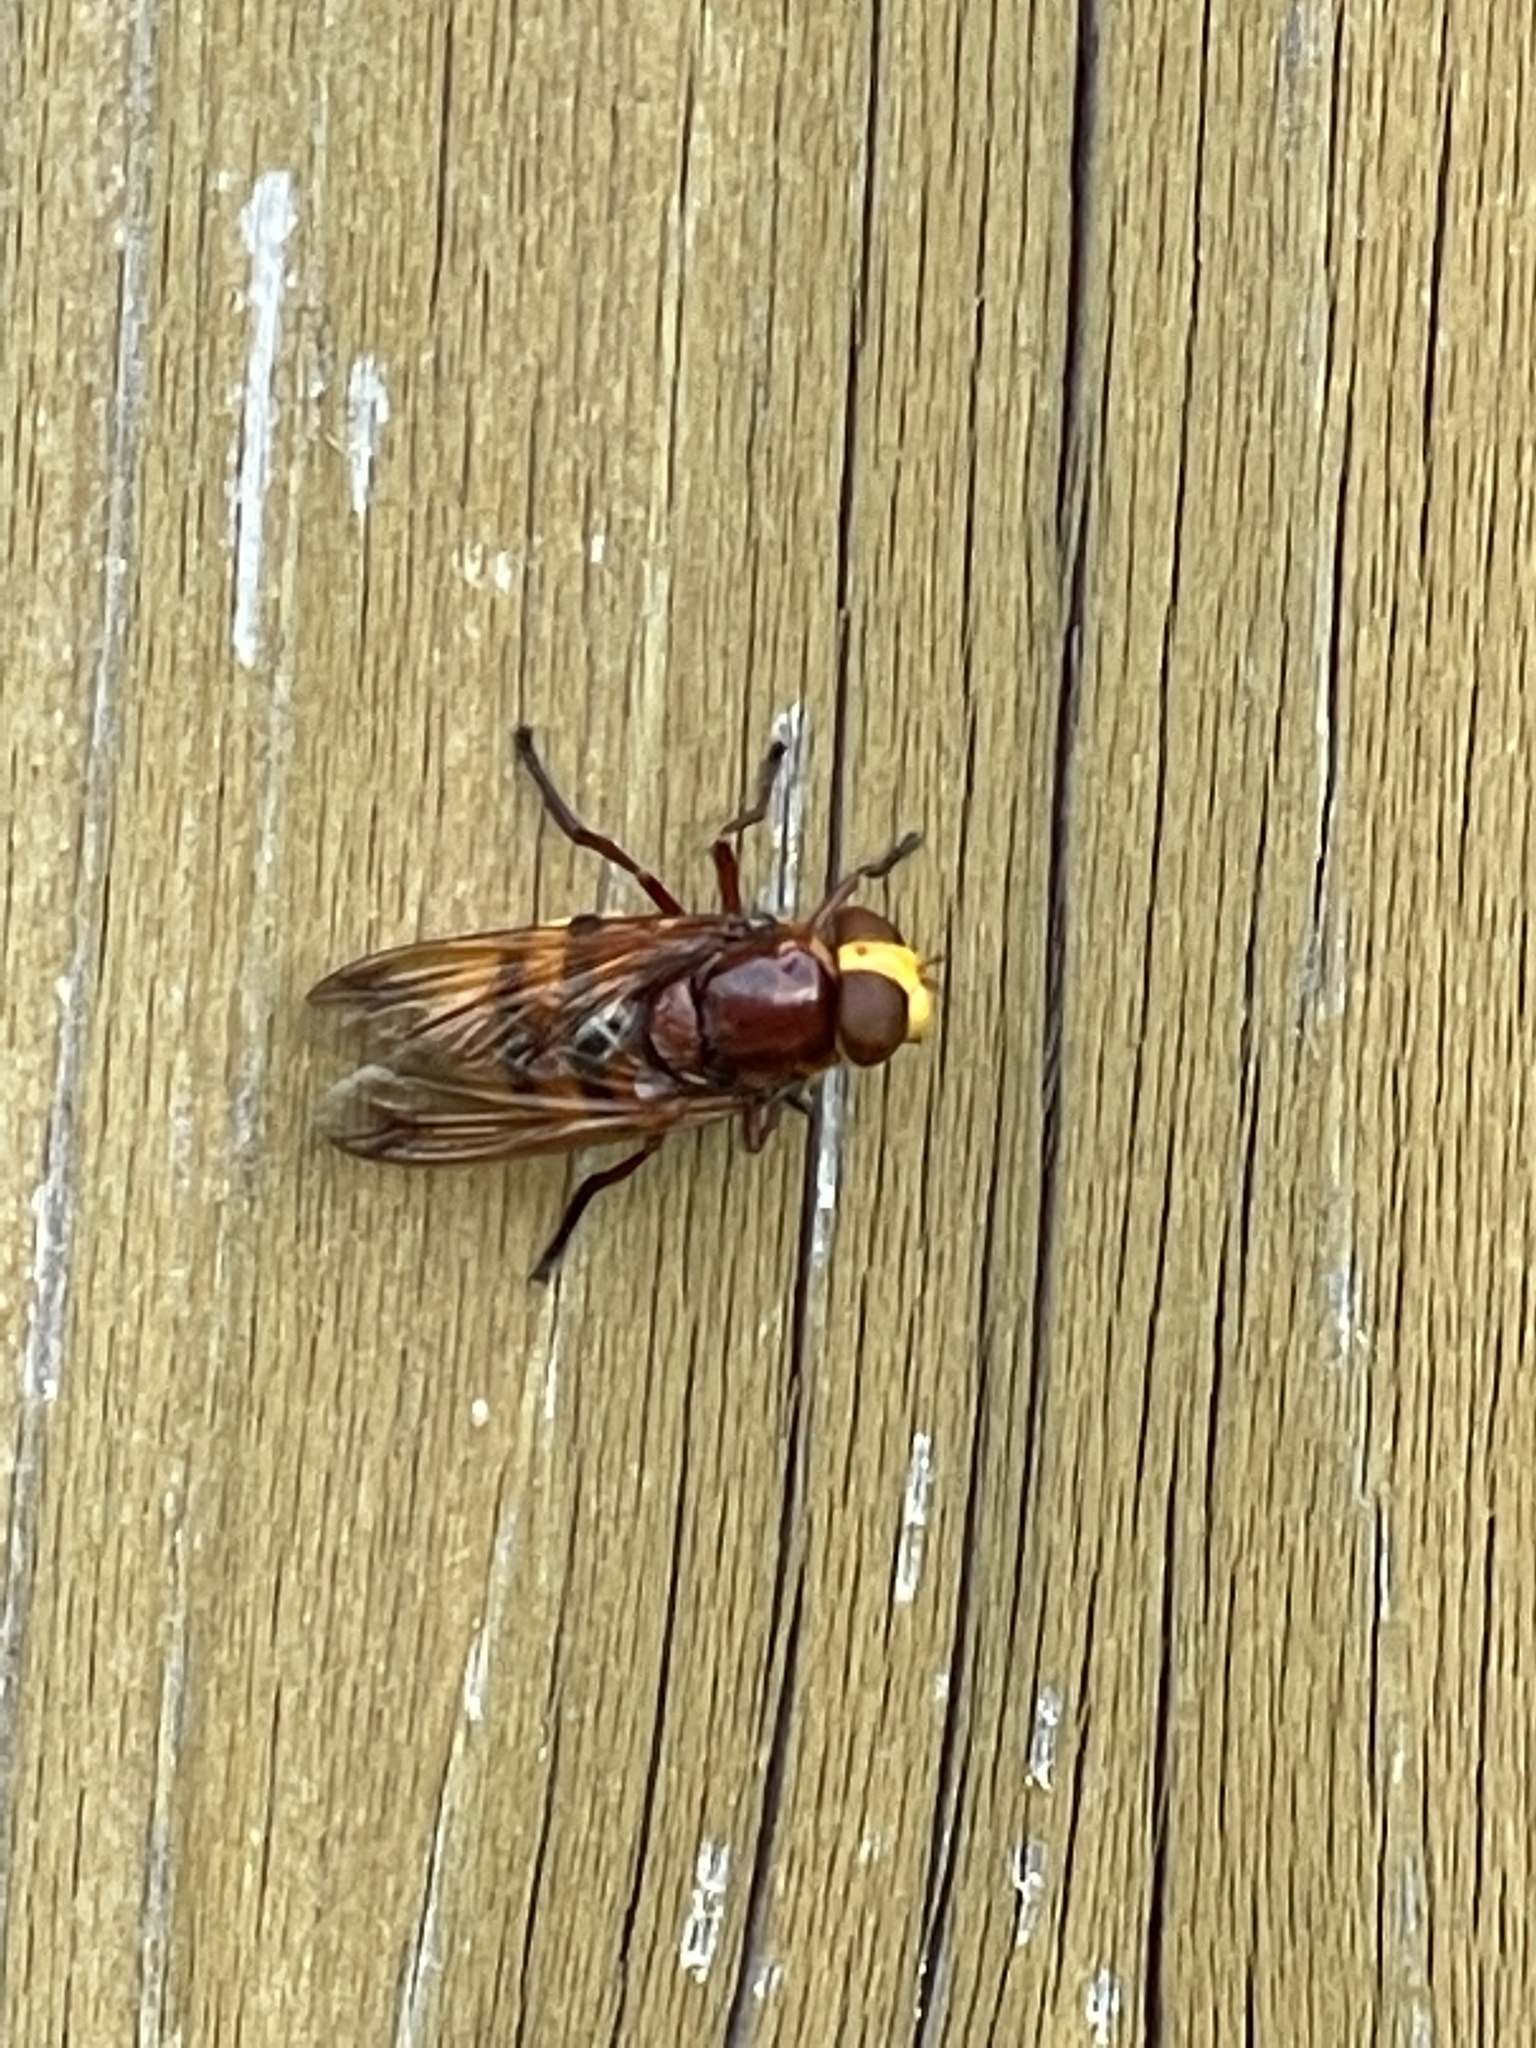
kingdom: Animalia
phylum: Arthropoda
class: Insecta
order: Diptera
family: Syrphidae
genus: Volucella
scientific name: Volucella zonaria
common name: Hornet hoverfly
